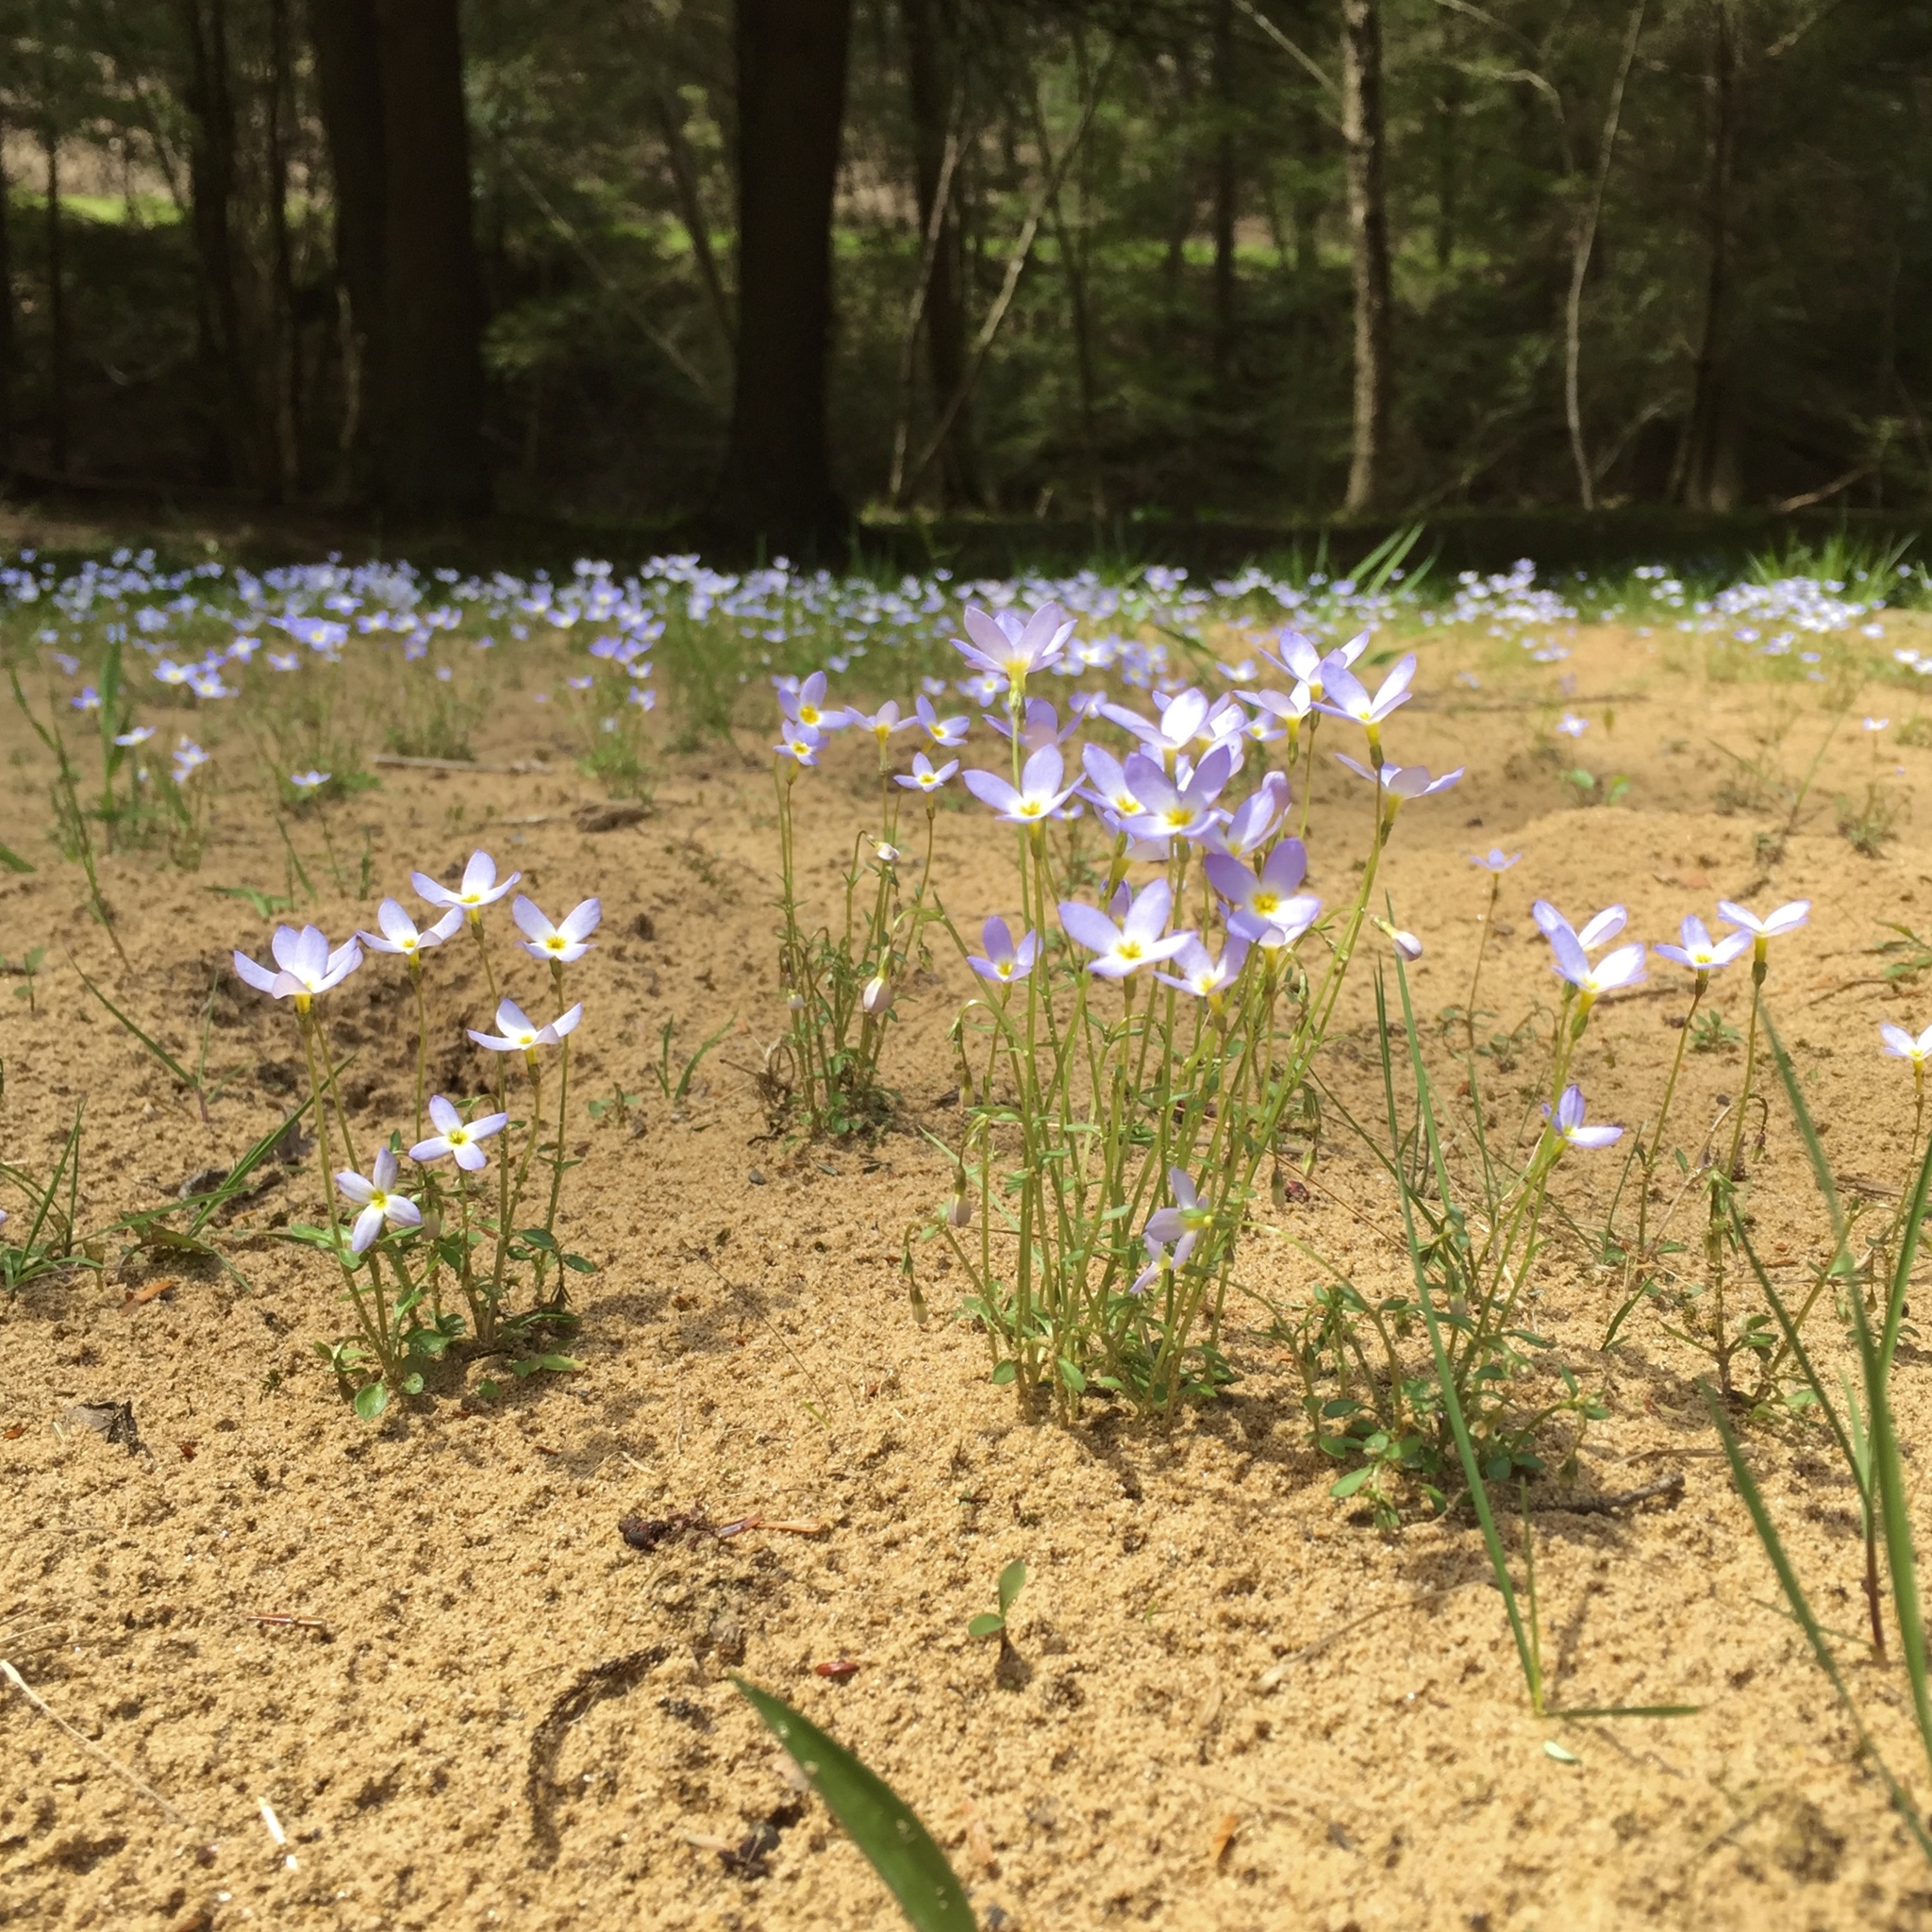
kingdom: Plantae
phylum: Tracheophyta
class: Magnoliopsida
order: Gentianales
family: Rubiaceae
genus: Houstonia
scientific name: Houstonia caerulea
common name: Bluets
